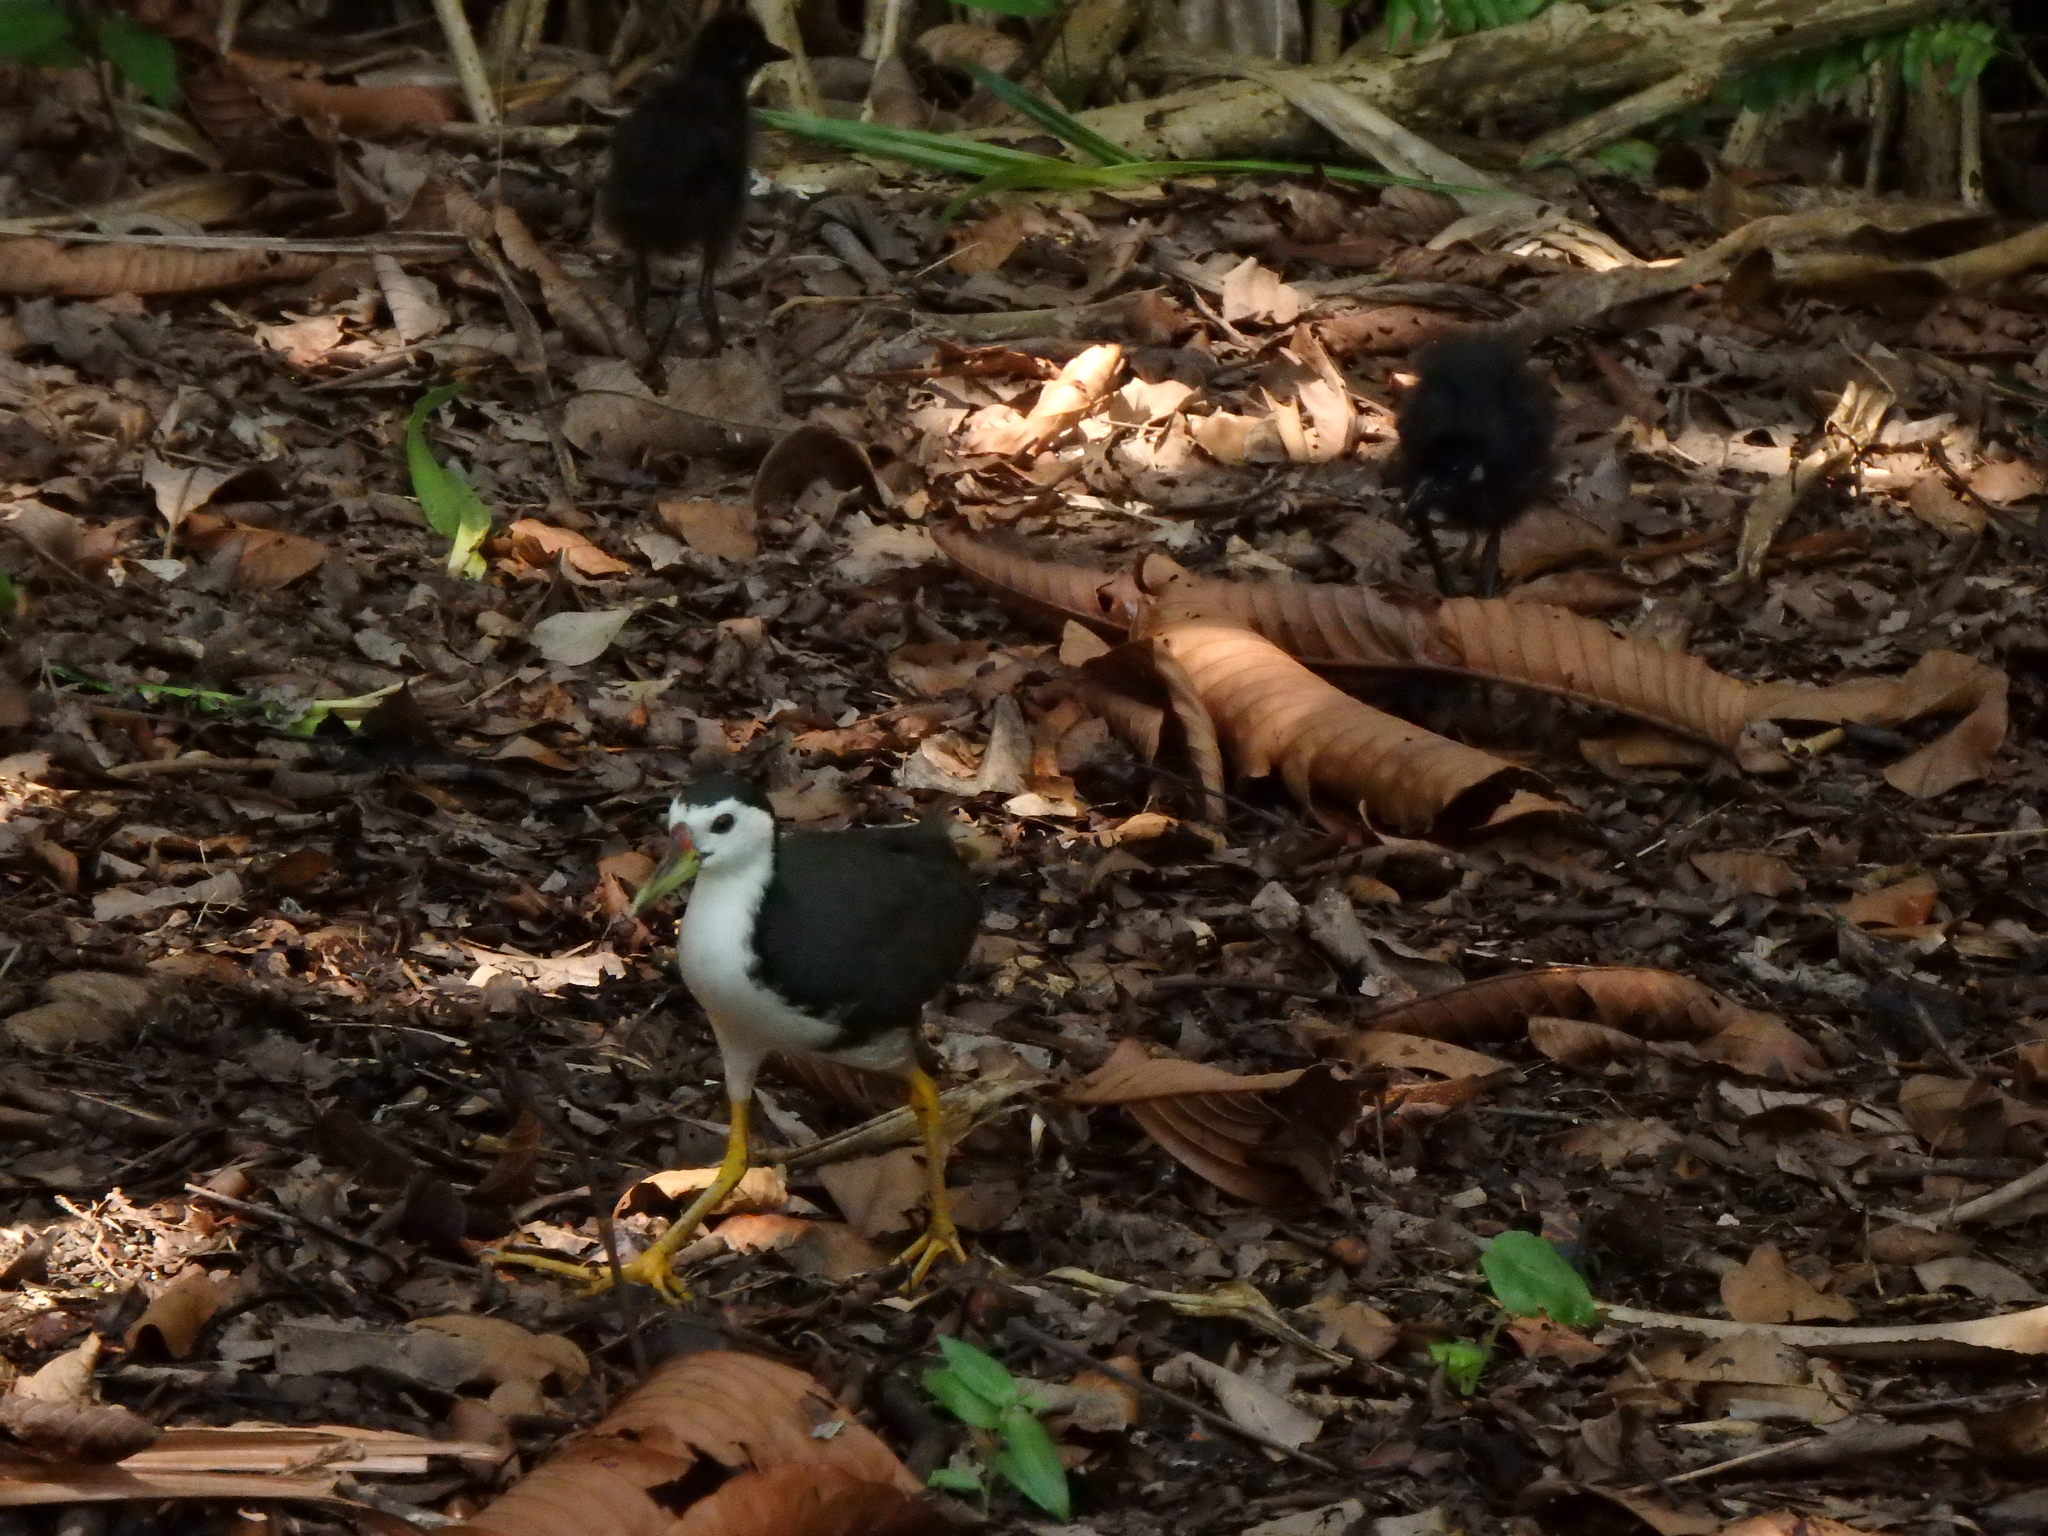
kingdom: Animalia
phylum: Chordata
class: Aves
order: Gruiformes
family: Rallidae
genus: Amaurornis
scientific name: Amaurornis phoenicurus
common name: White-breasted waterhen
